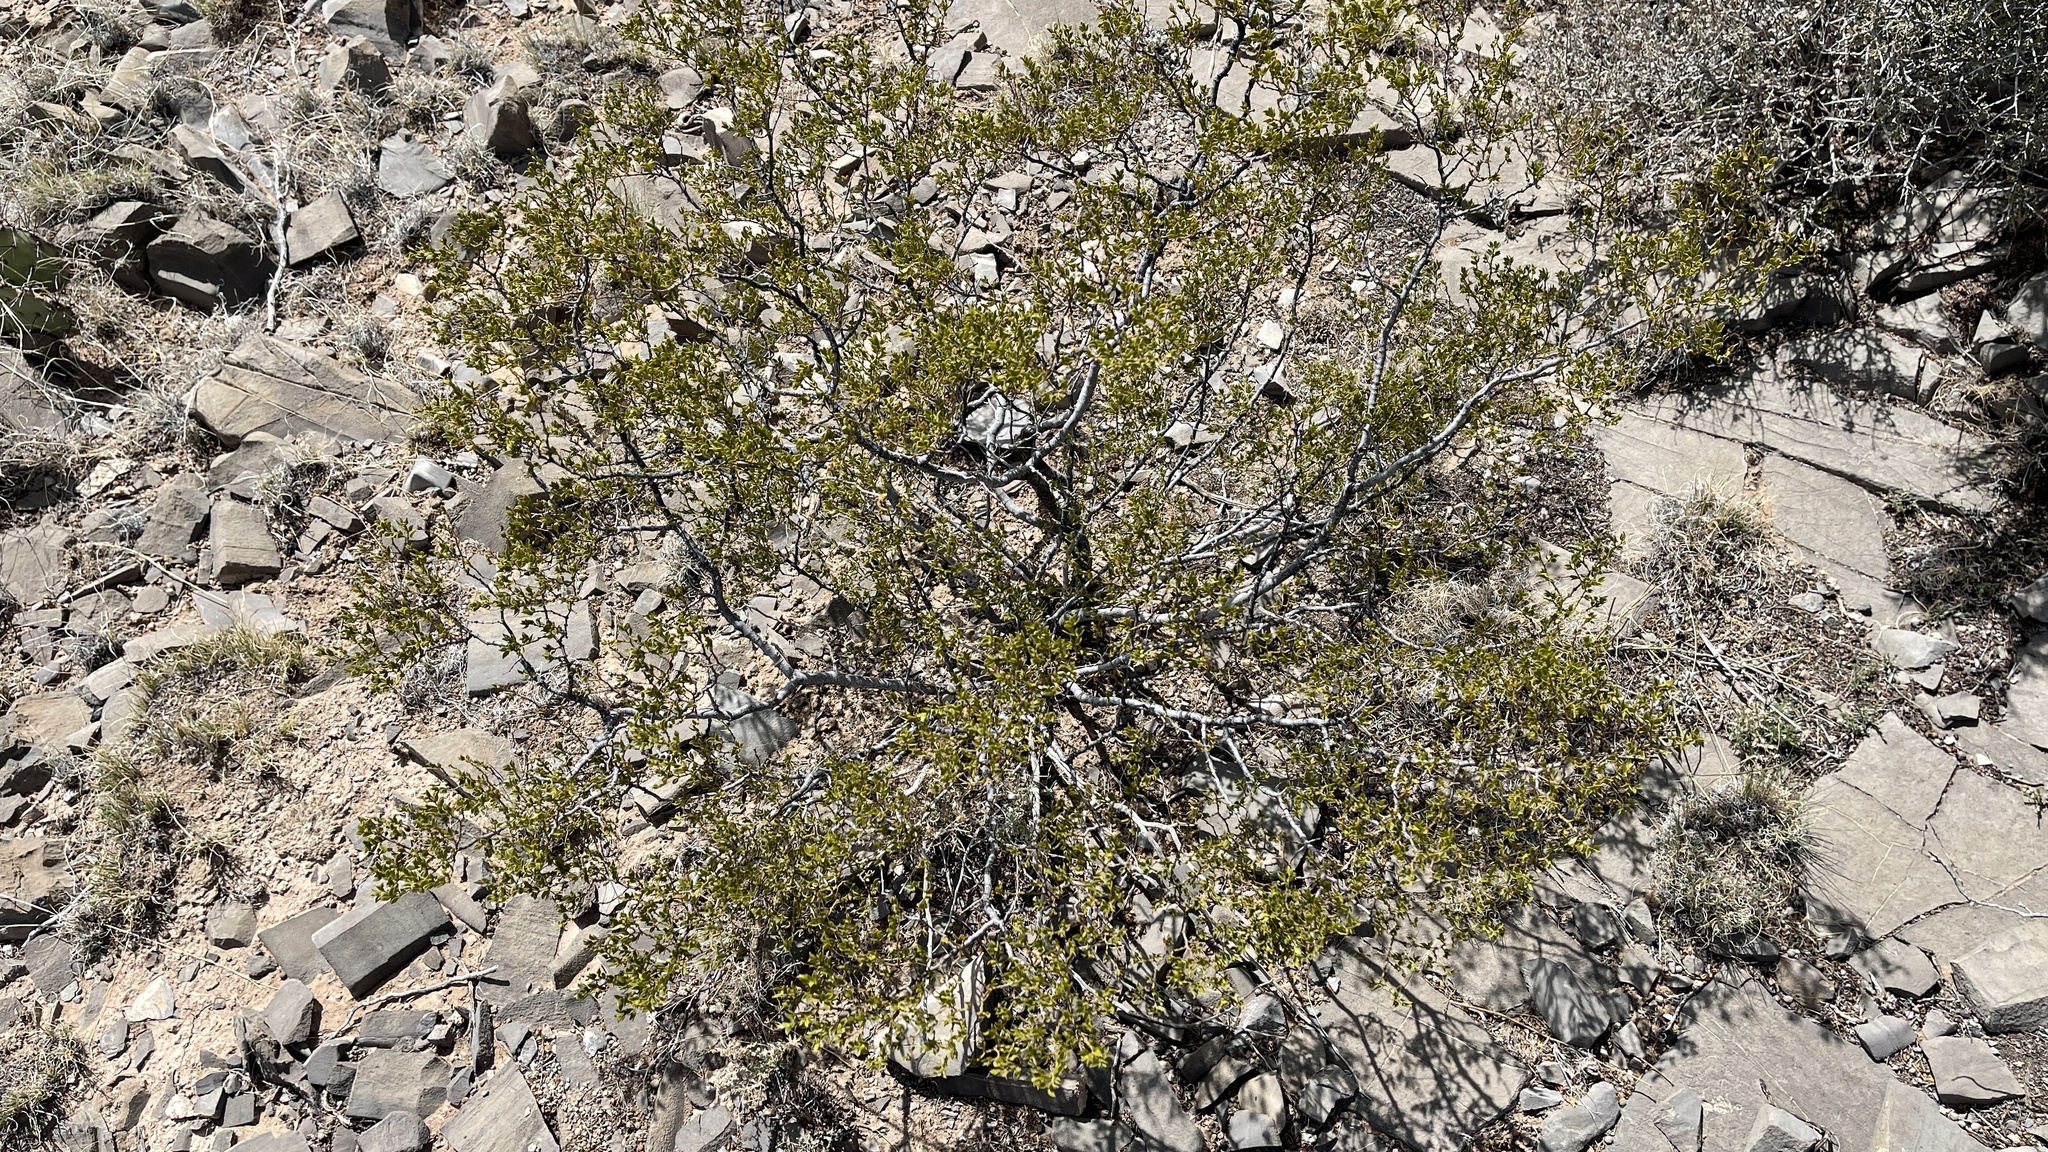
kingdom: Plantae
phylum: Tracheophyta
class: Magnoliopsida
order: Zygophyllales
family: Zygophyllaceae
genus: Larrea
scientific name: Larrea tridentata
